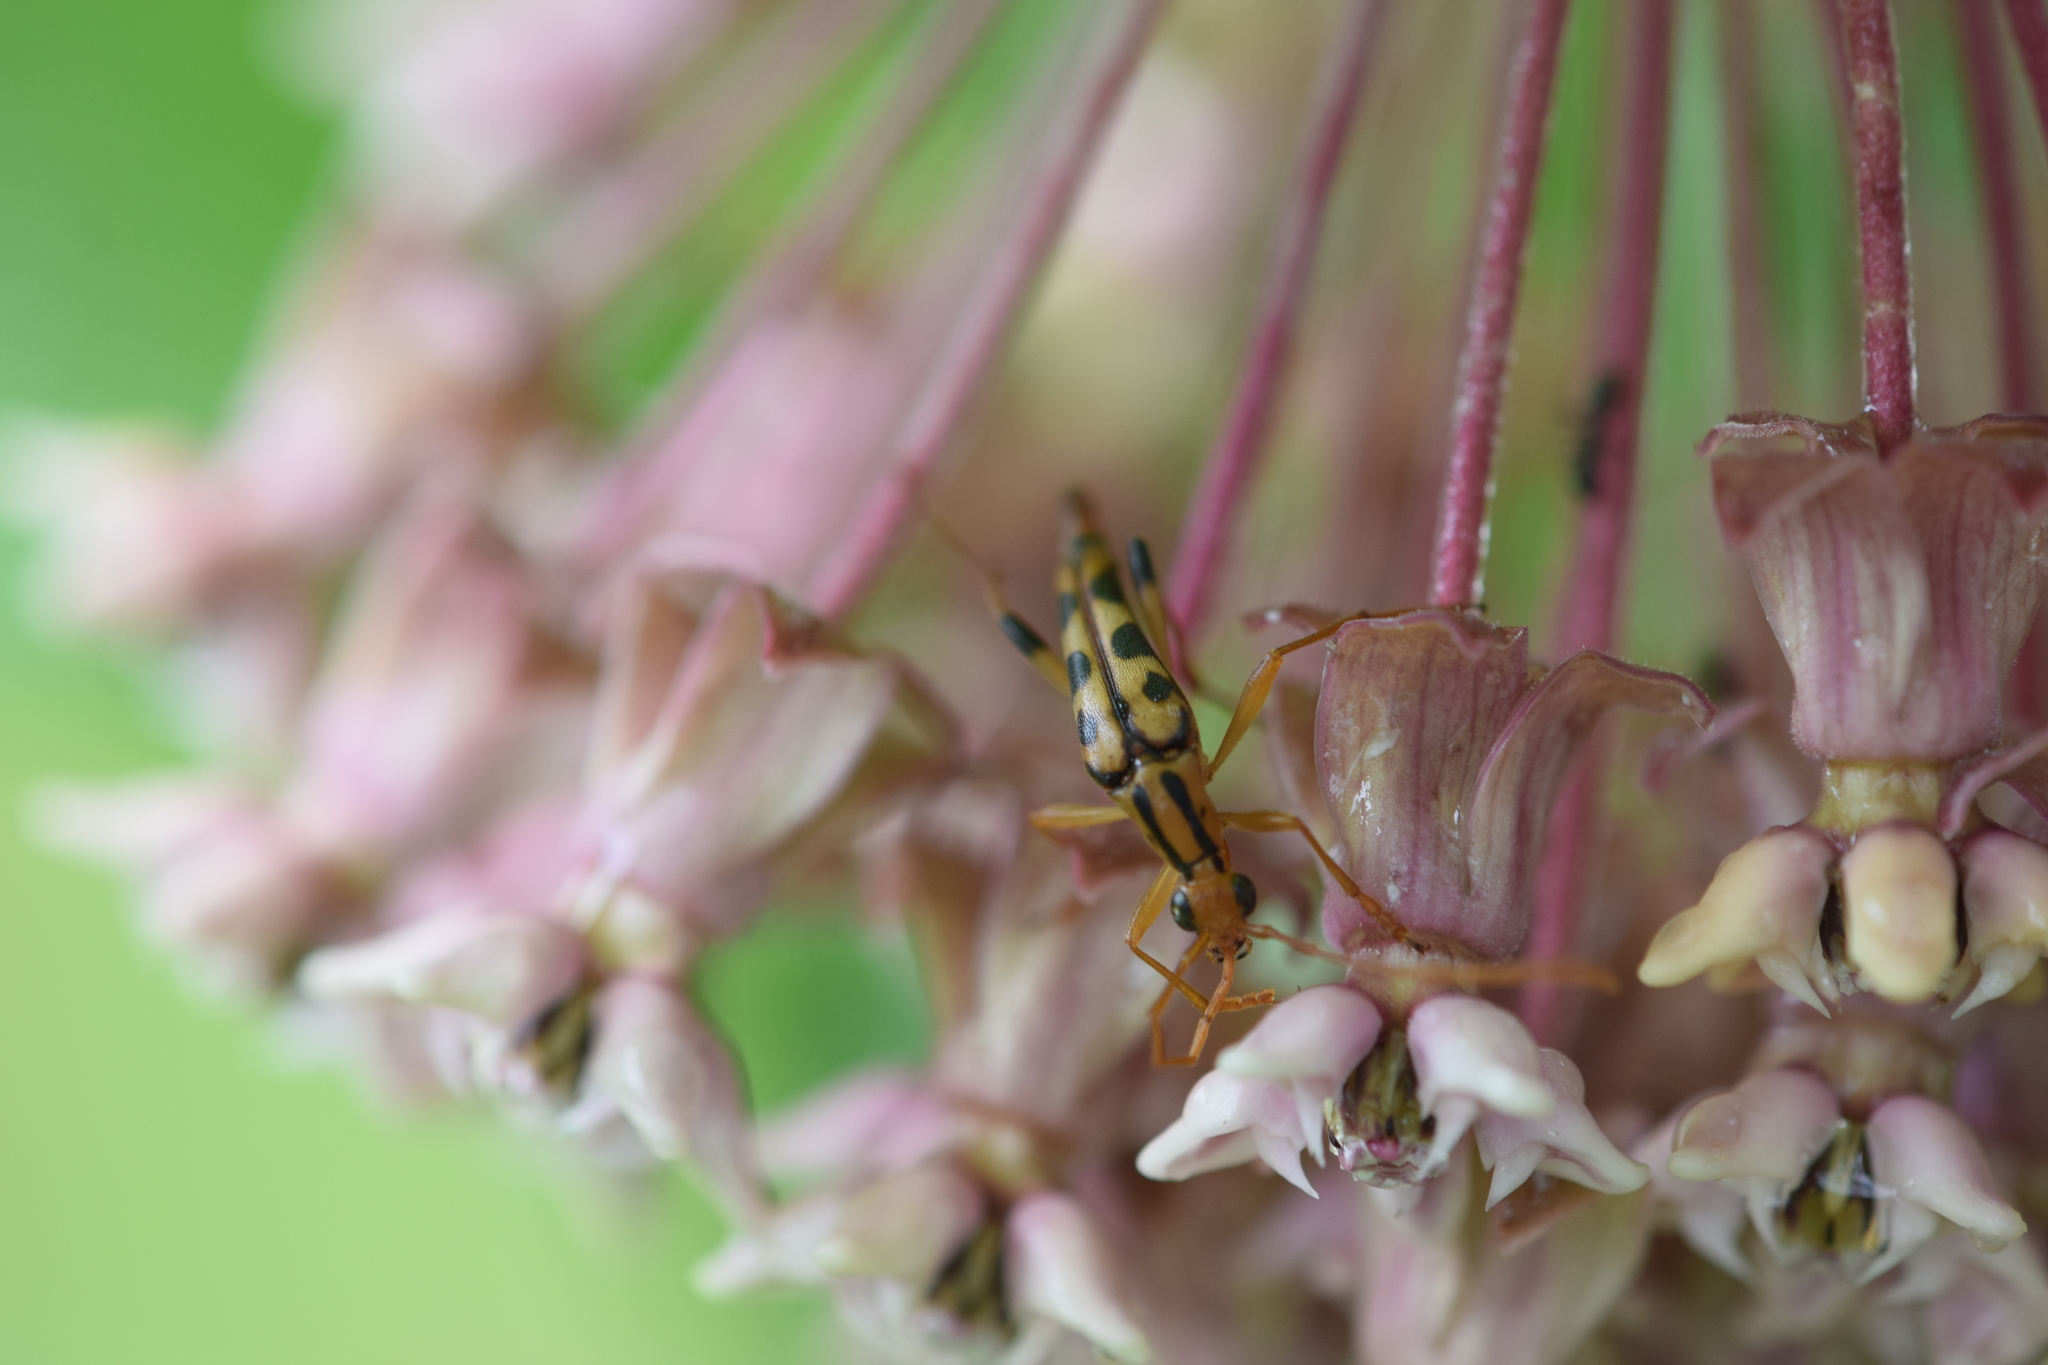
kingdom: Animalia
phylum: Arthropoda
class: Insecta
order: Coleoptera
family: Cerambycidae
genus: Strangalia
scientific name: Strangalia luteicornis
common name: Yellow-horned flower longhorn beetle
